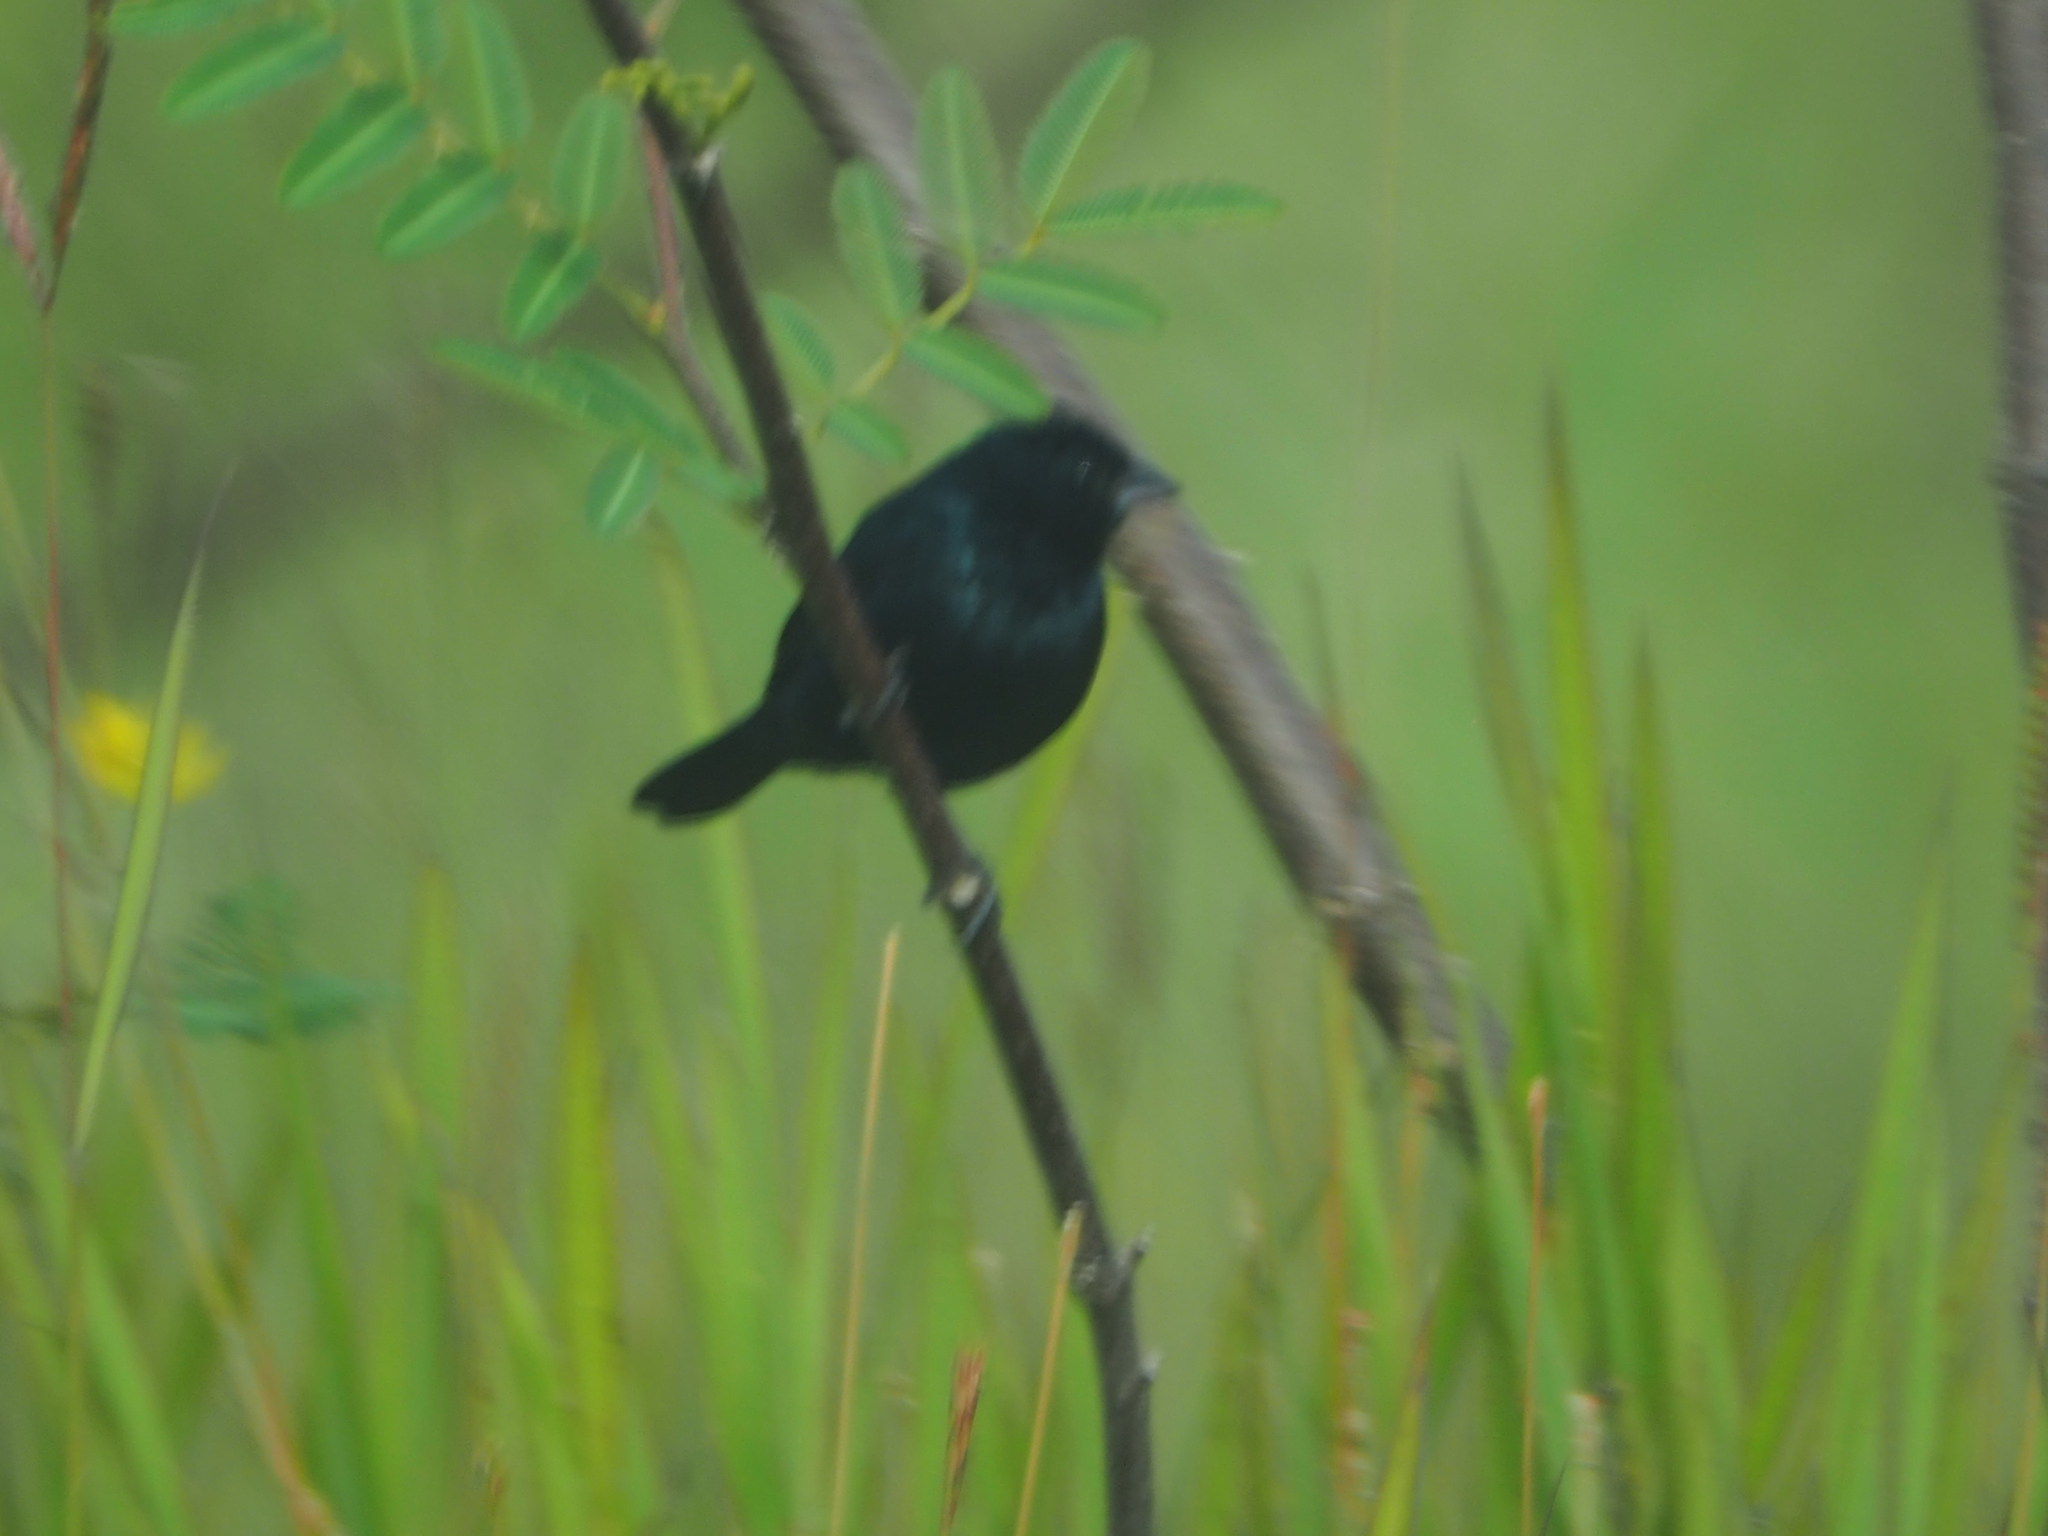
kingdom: Animalia
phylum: Chordata
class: Aves
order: Passeriformes
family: Thraupidae
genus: Volatinia
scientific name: Volatinia jacarina
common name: Blue-black grassquit
